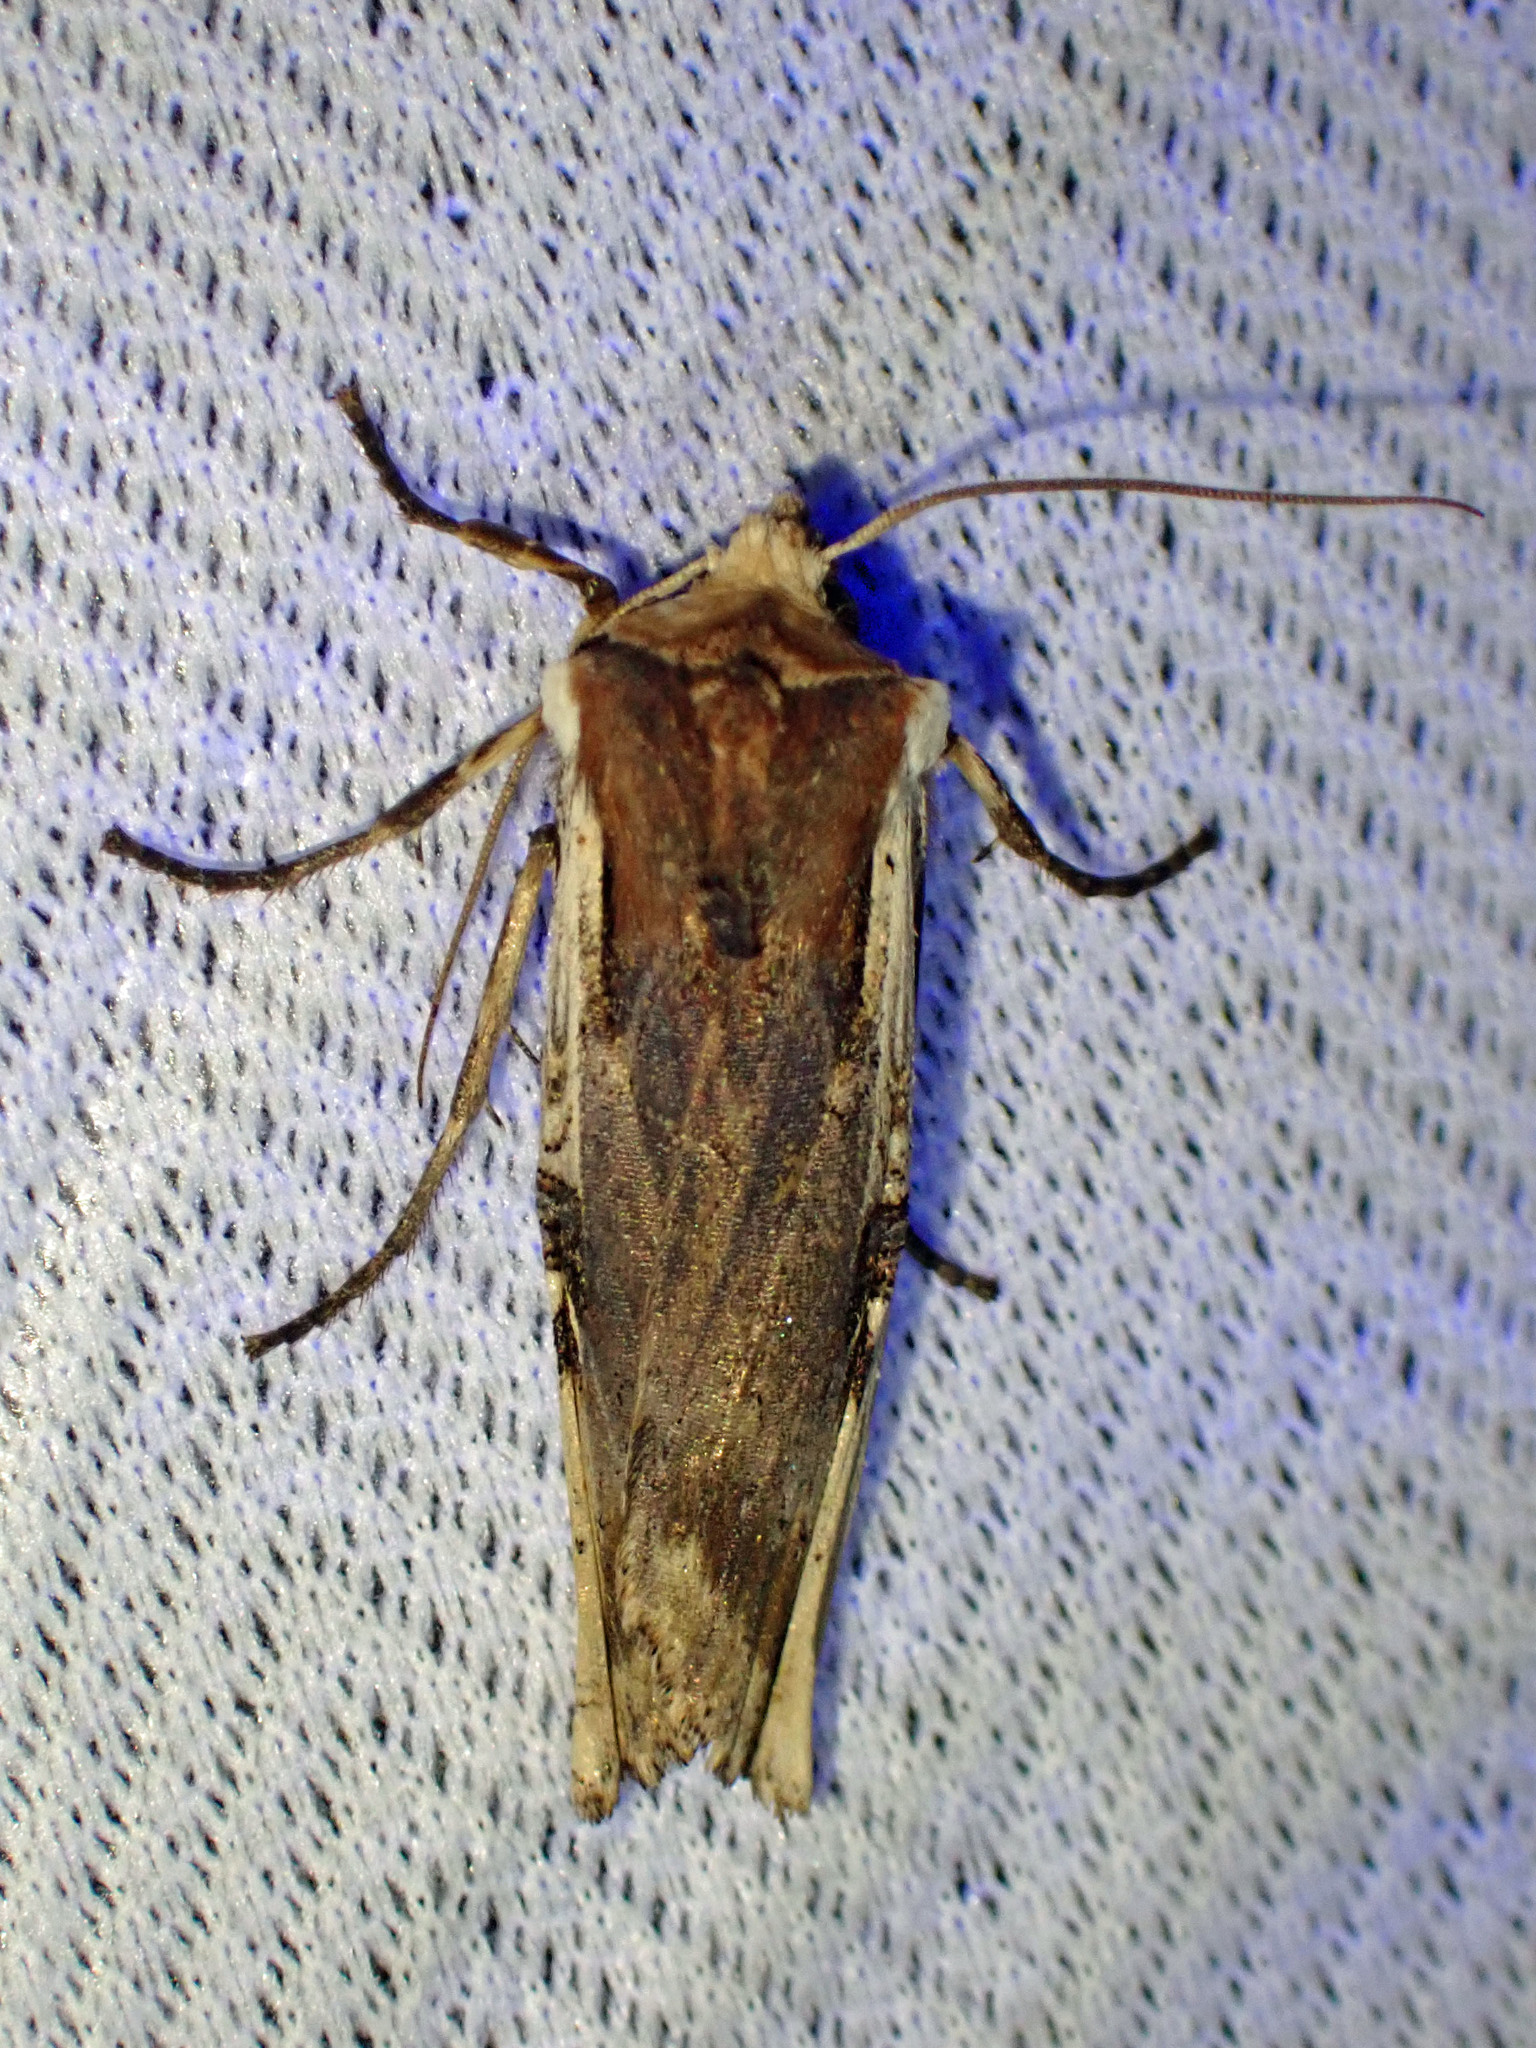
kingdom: Animalia
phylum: Arthropoda
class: Insecta
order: Lepidoptera
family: Noctuidae
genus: Xylena
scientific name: Xylena curvimacula
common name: Dot-and-dash swordgrass moth
